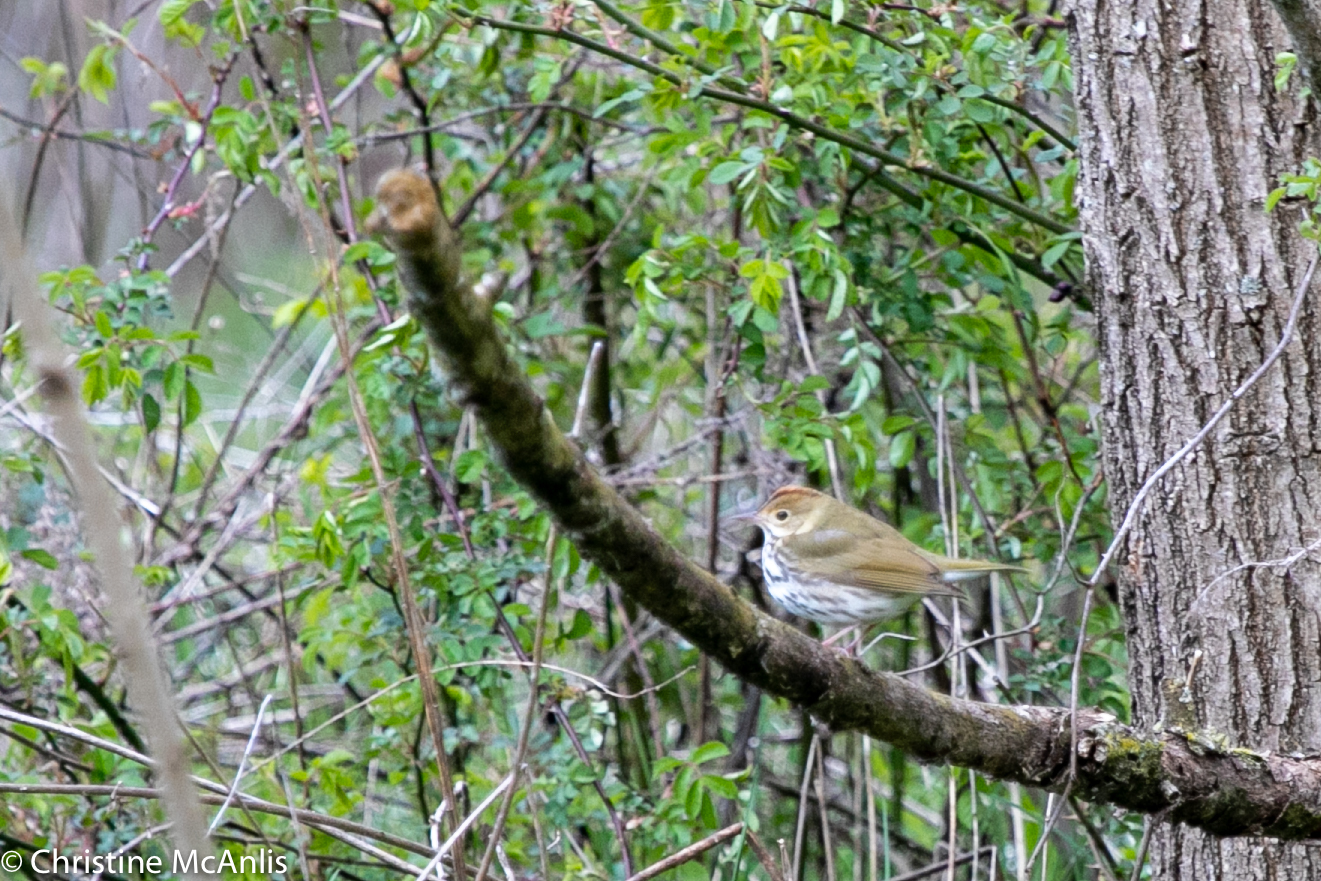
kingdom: Animalia
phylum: Chordata
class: Aves
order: Passeriformes
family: Parulidae
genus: Seiurus
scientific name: Seiurus aurocapilla
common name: Ovenbird
